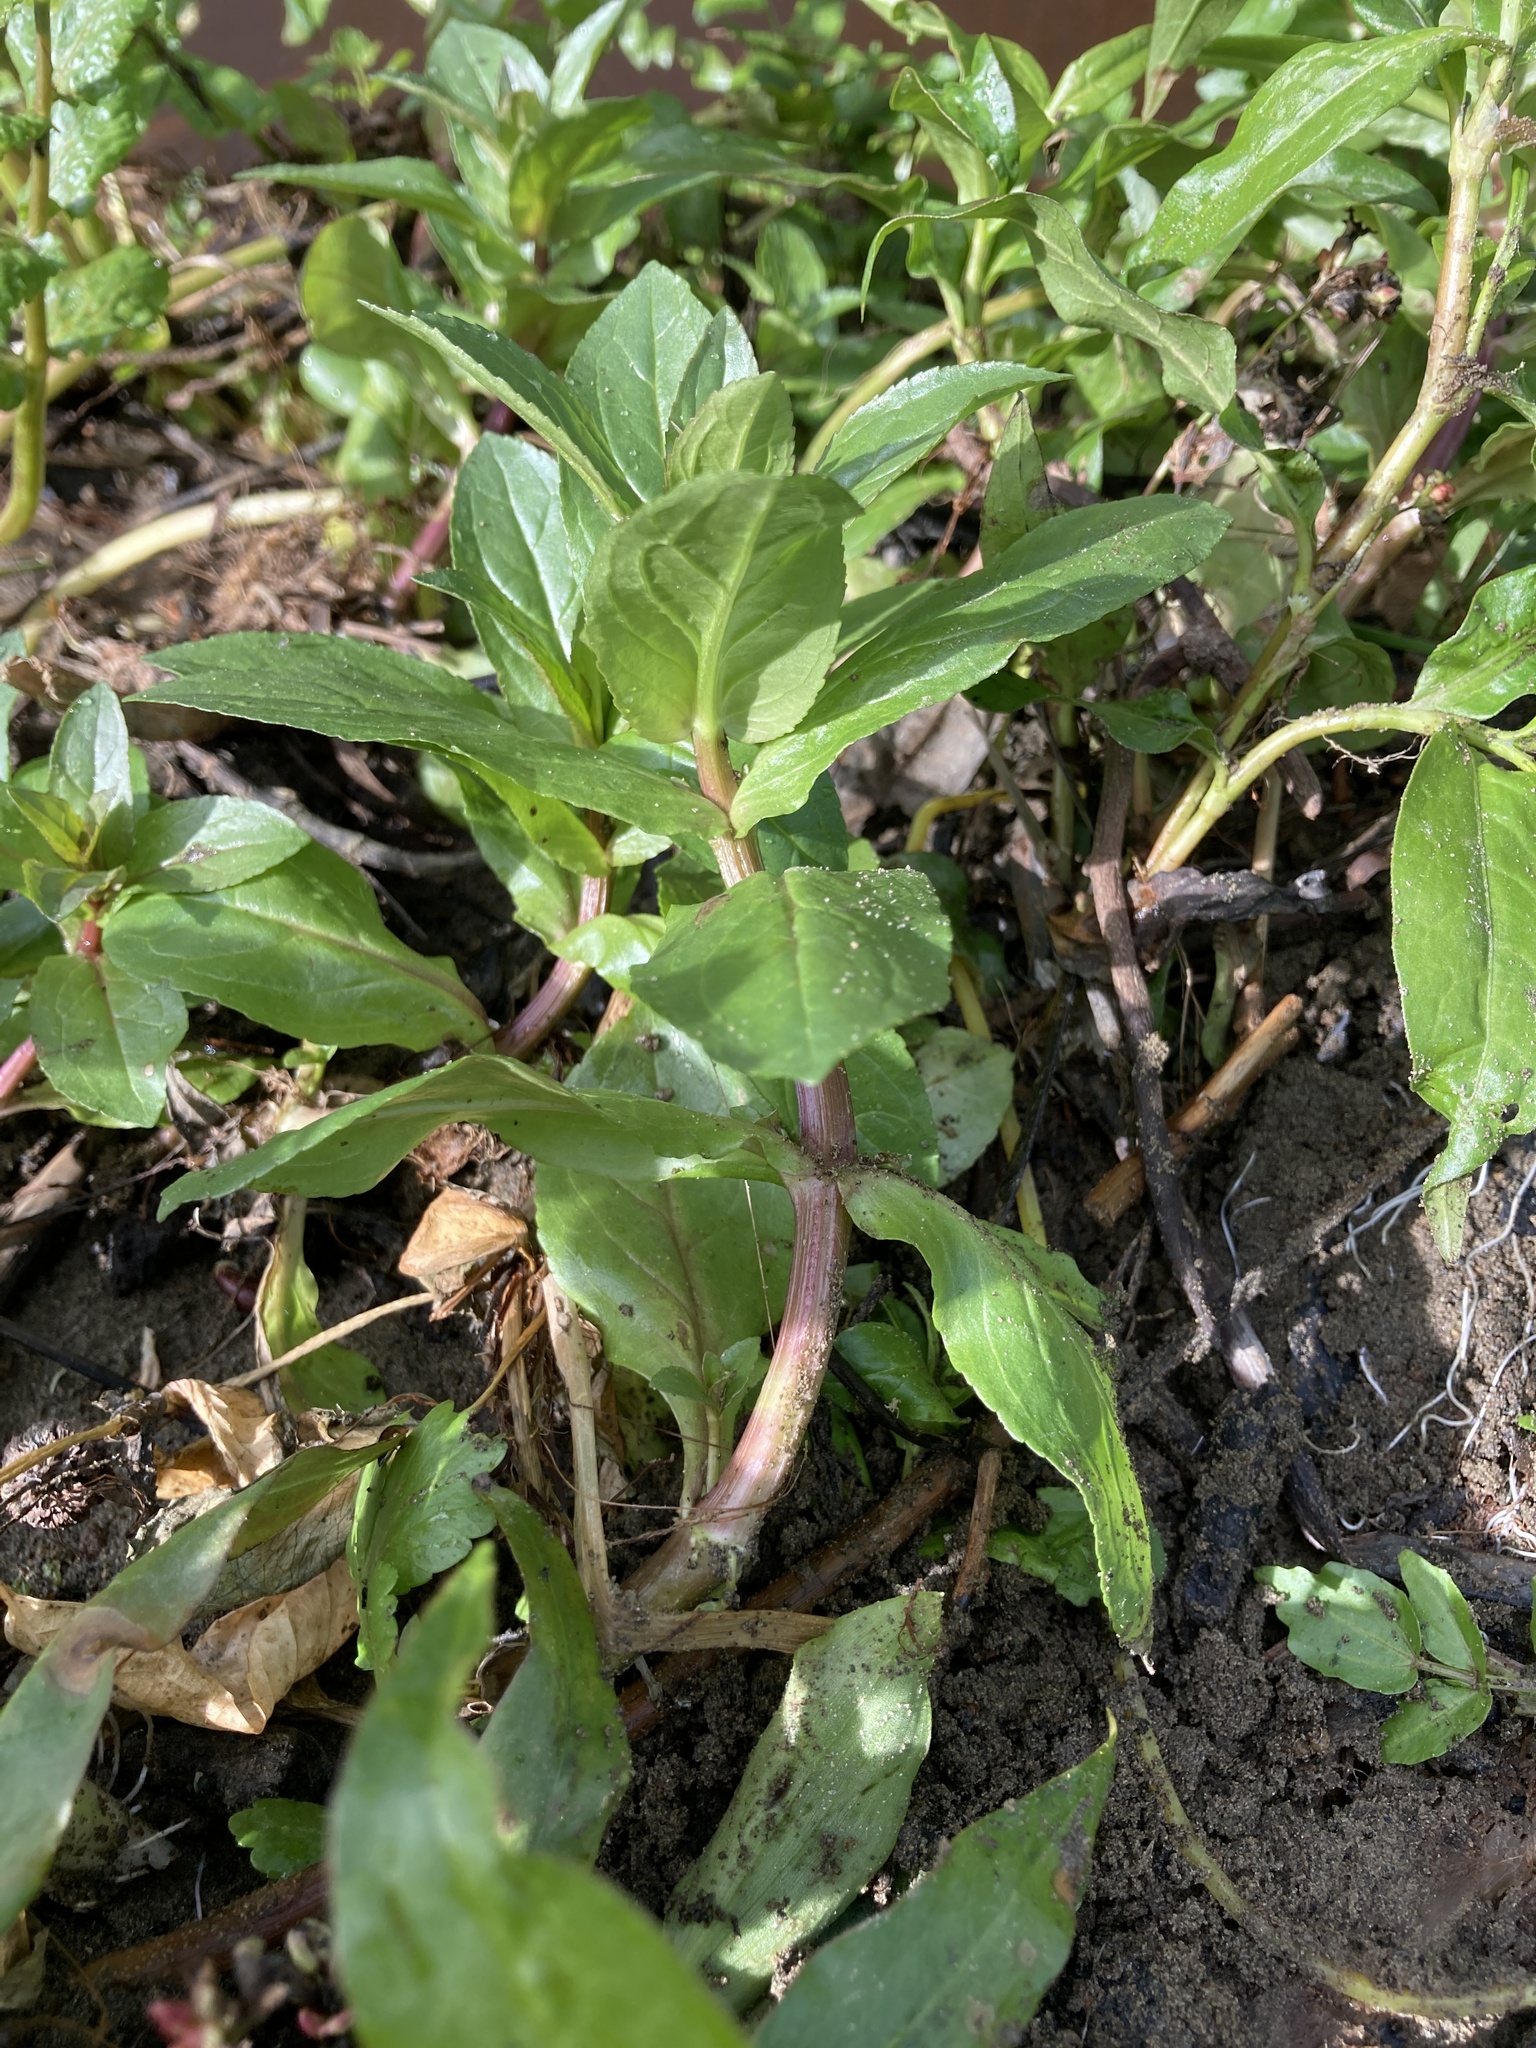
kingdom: Plantae
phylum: Tracheophyta
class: Magnoliopsida
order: Lamiales
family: Plantaginaceae
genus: Veronica
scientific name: Veronica anagallis-aquatica
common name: Water speedwell
